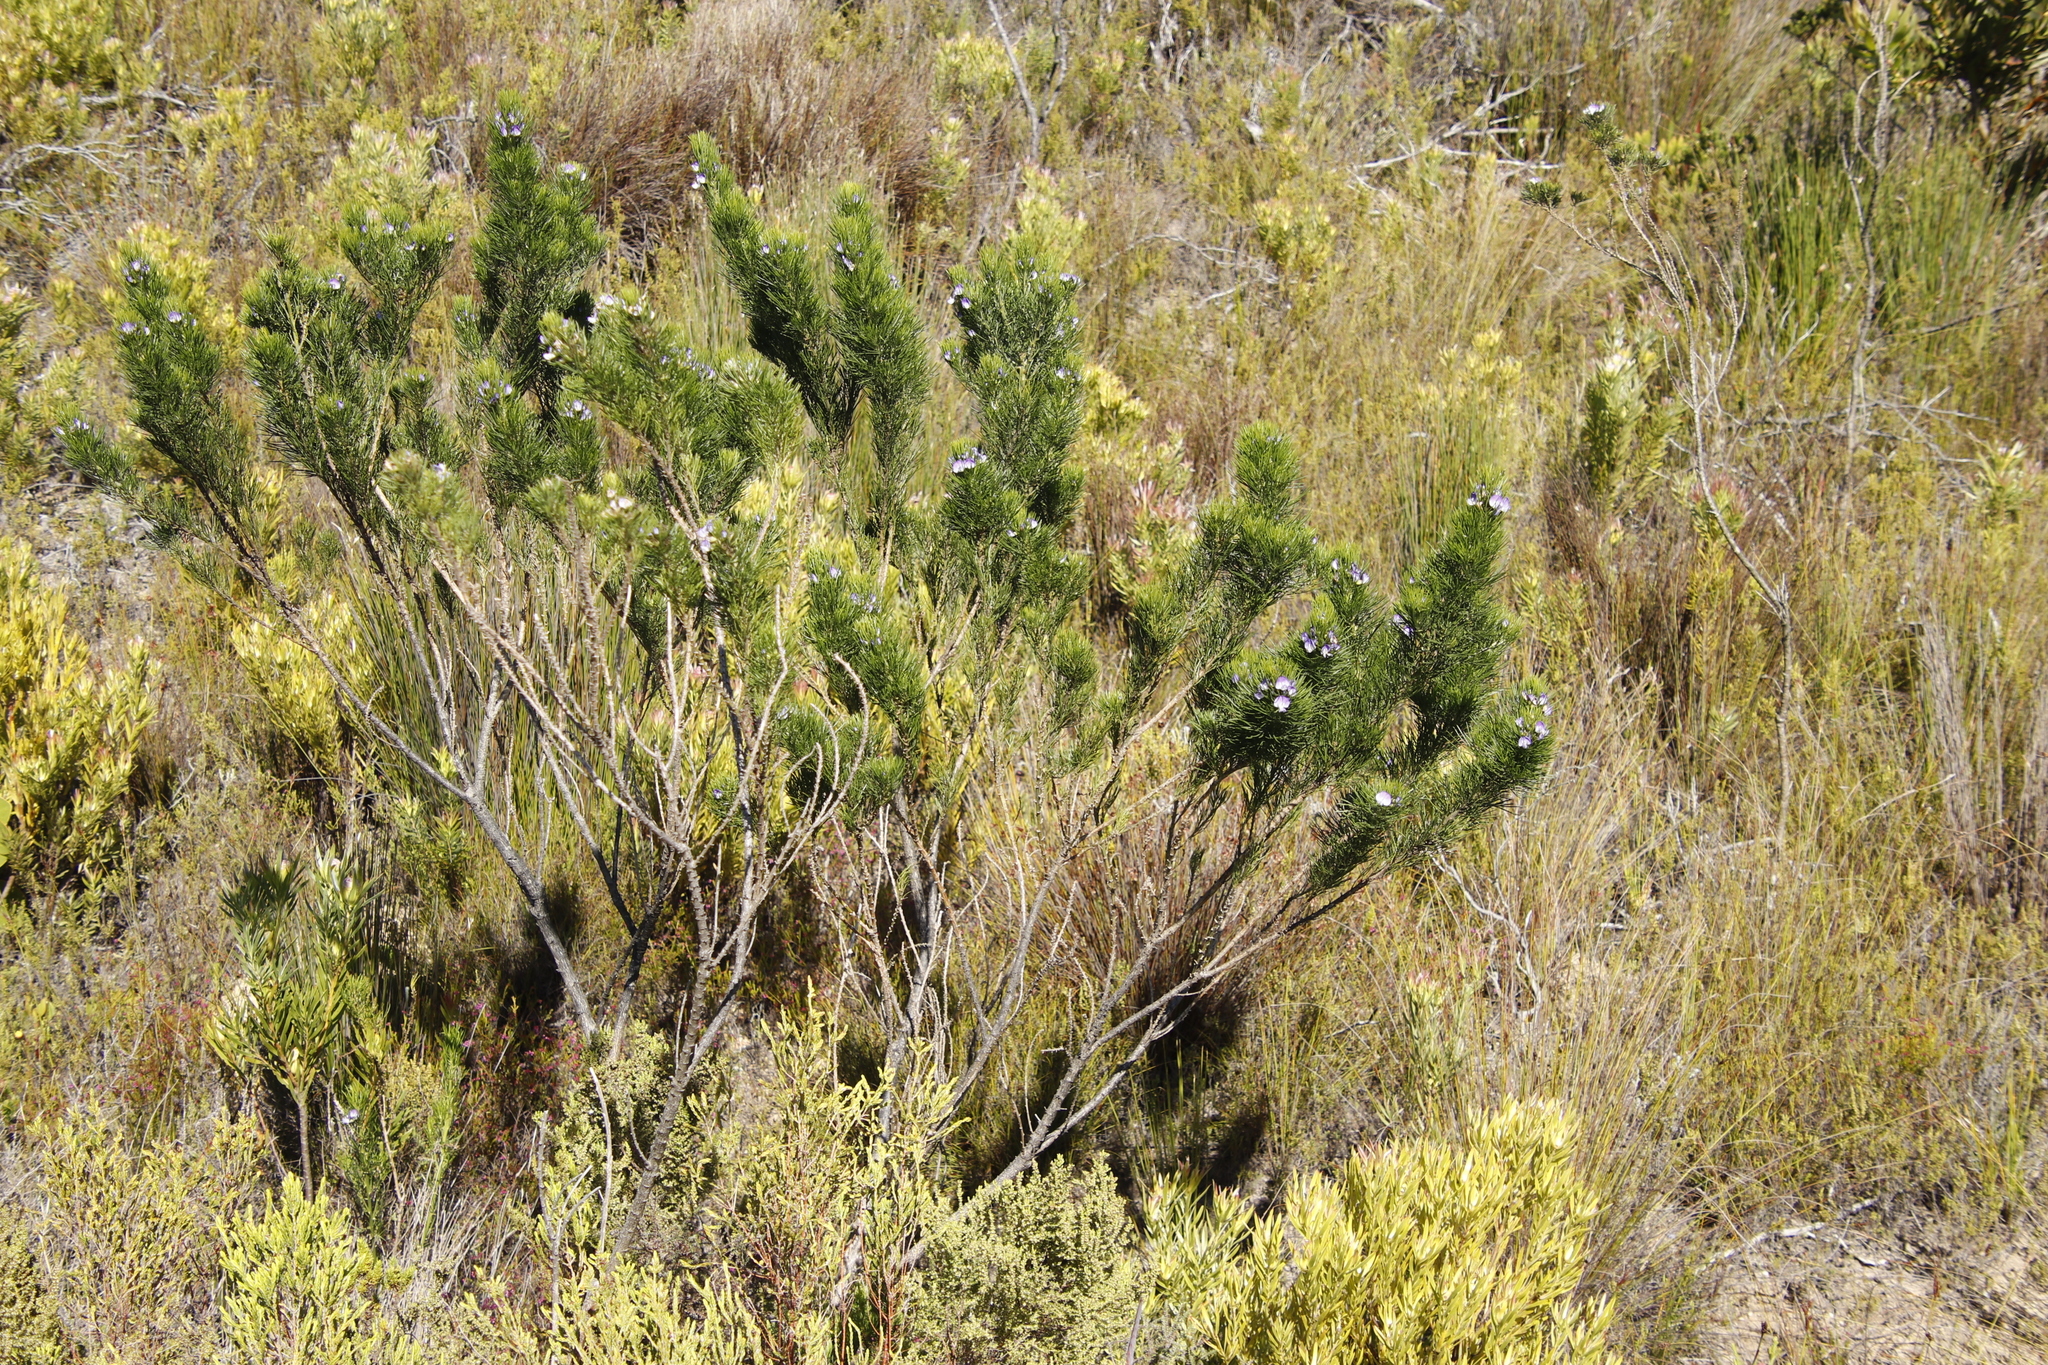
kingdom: Plantae
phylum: Tracheophyta
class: Magnoliopsida
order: Fabales
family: Fabaceae
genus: Psoralea
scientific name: Psoralea pinnata
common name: African scurfpea
